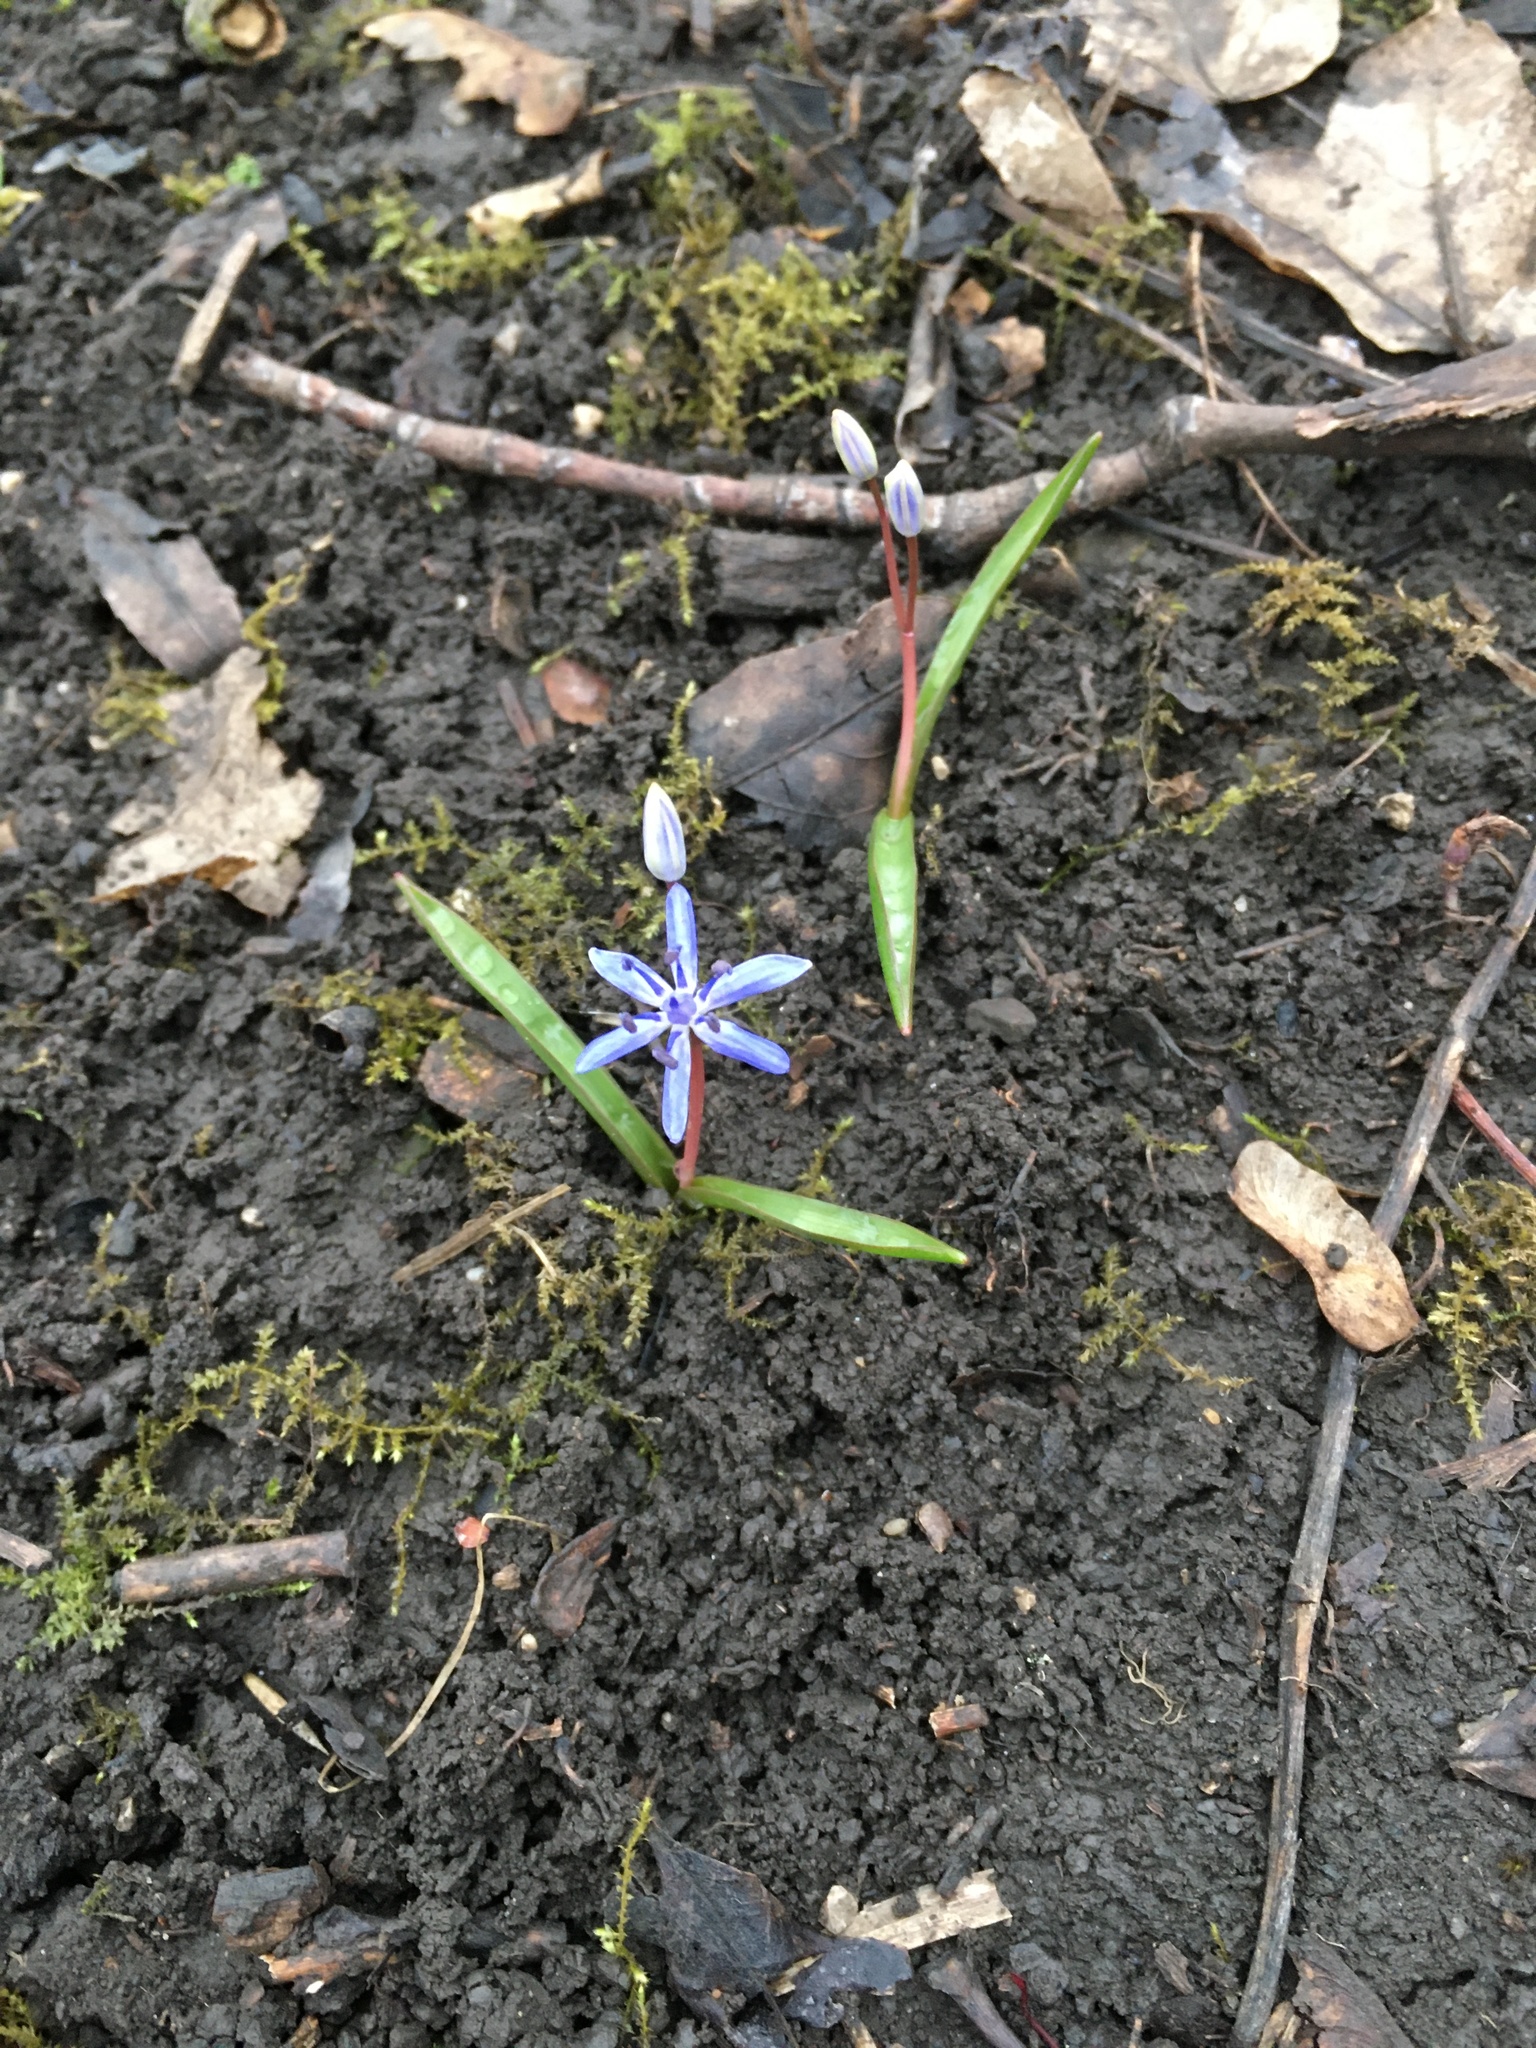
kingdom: Plantae
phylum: Tracheophyta
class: Liliopsida
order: Asparagales
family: Asparagaceae
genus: Scilla
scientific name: Scilla vindobonensis
